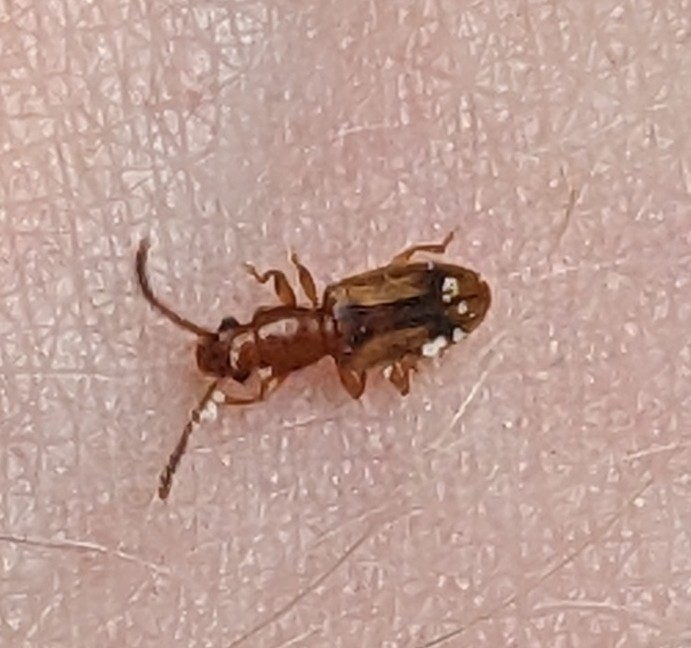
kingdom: Animalia
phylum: Arthropoda
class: Insecta
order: Coleoptera
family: Silvanidae
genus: Cryptamorpha
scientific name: Cryptamorpha desjardinsi
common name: Cryptamorpha
